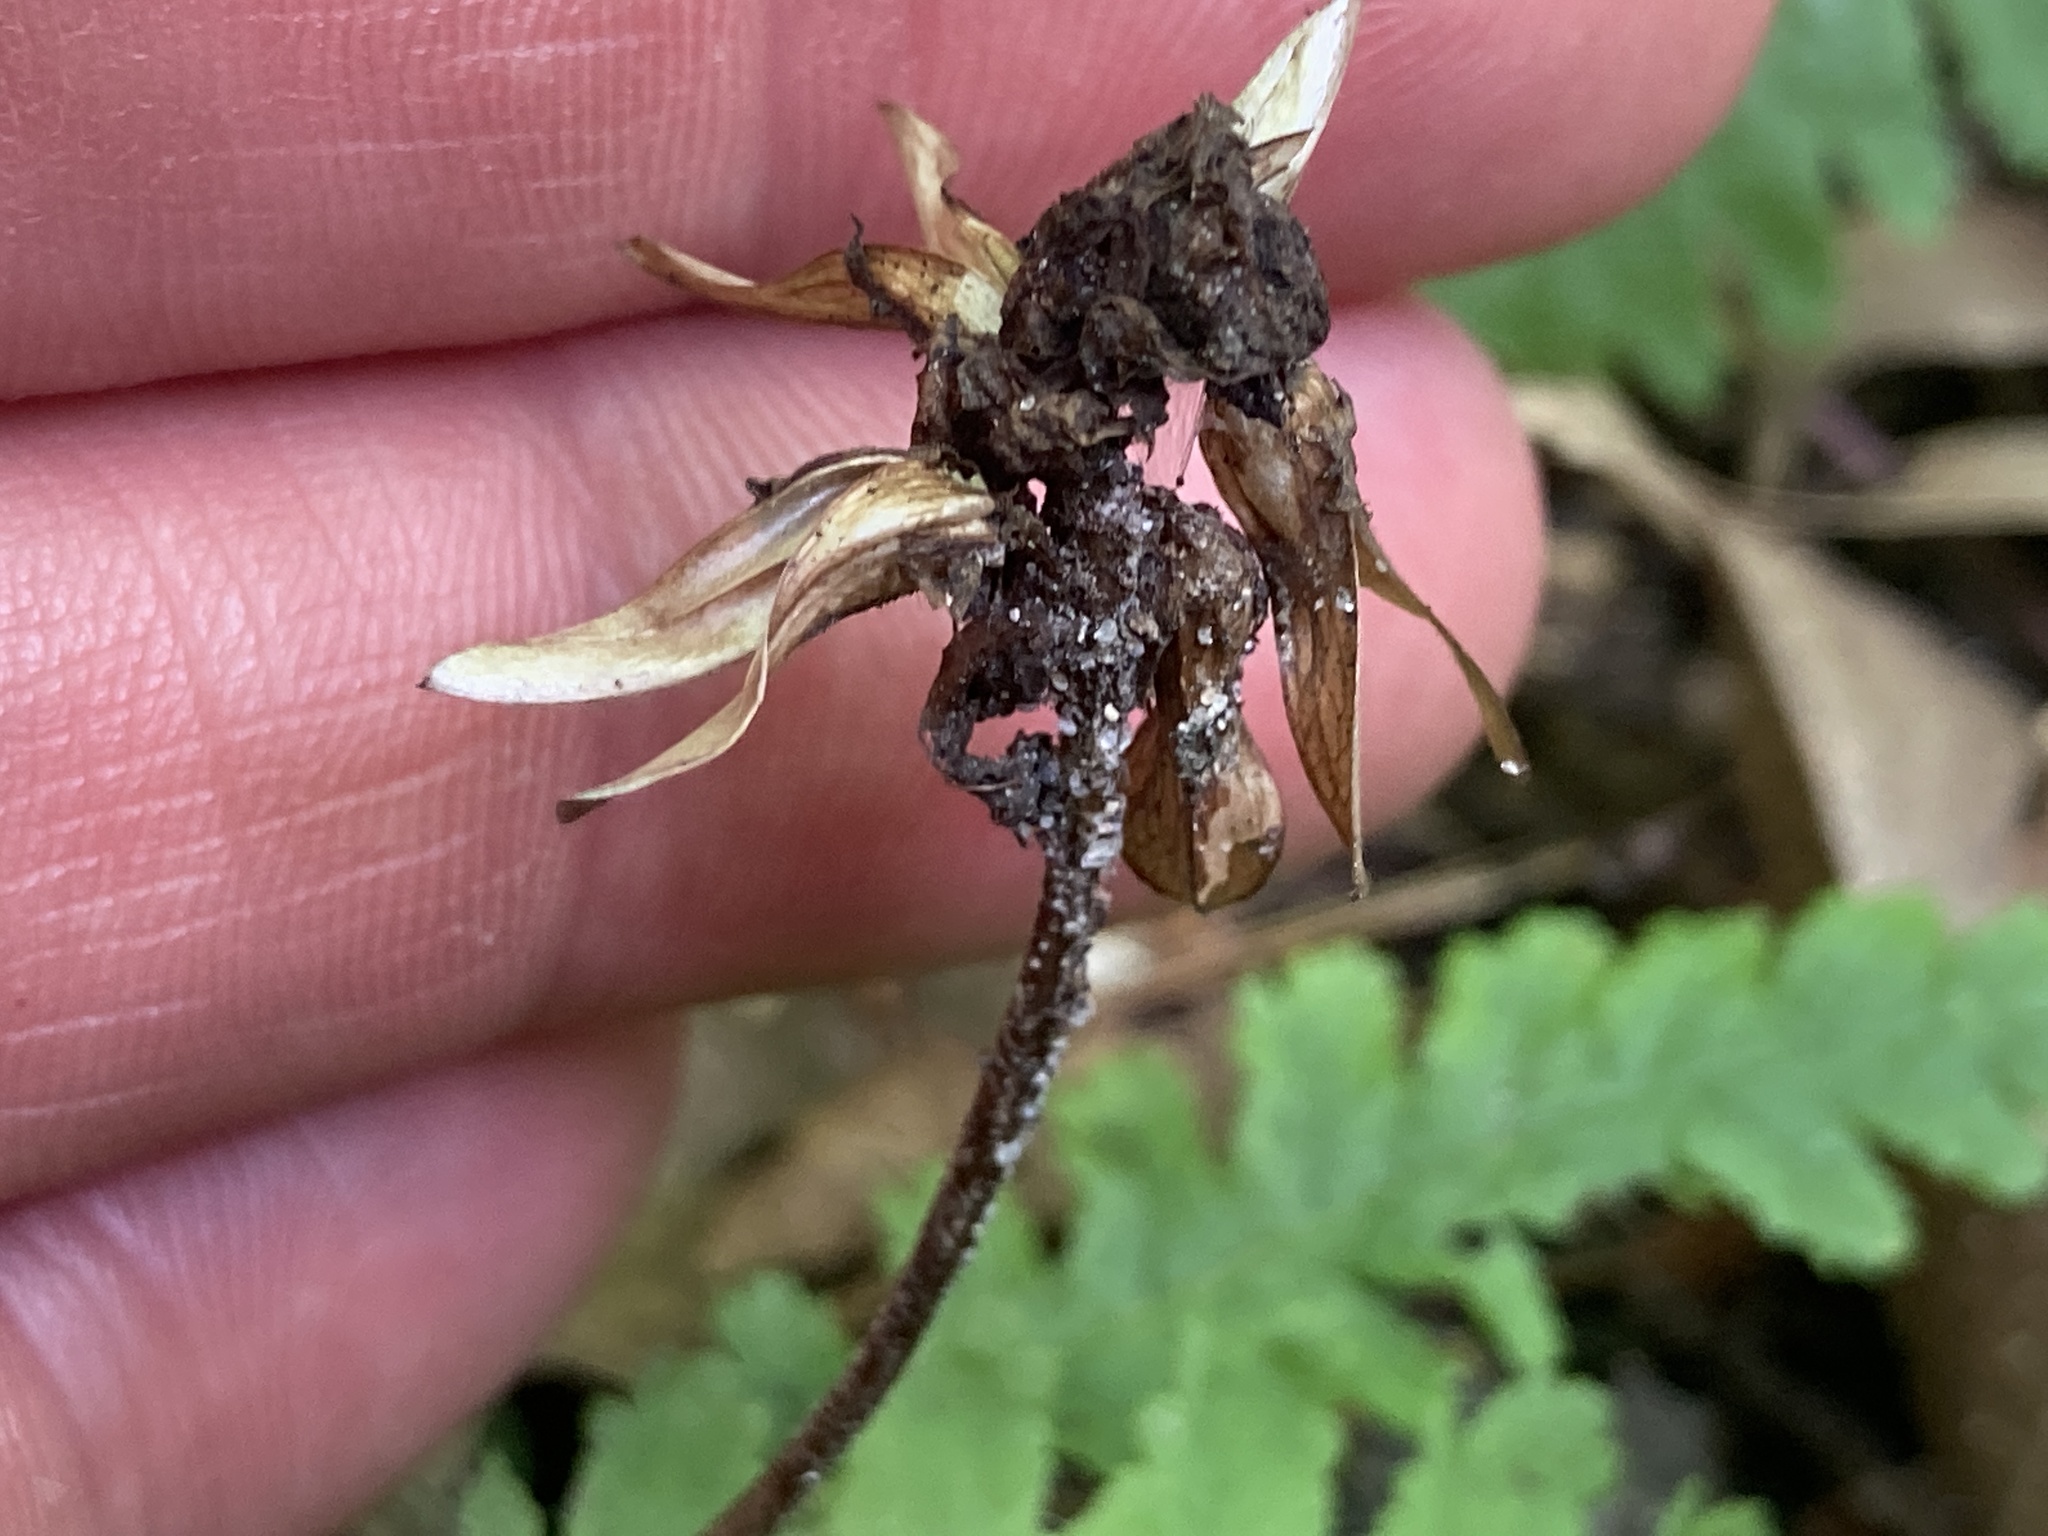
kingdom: Plantae
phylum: Tracheophyta
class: Magnoliopsida
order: Lamiales
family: Orobanchaceae
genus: Pedicularis
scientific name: Pedicularis canadensis
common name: Early lousewort
